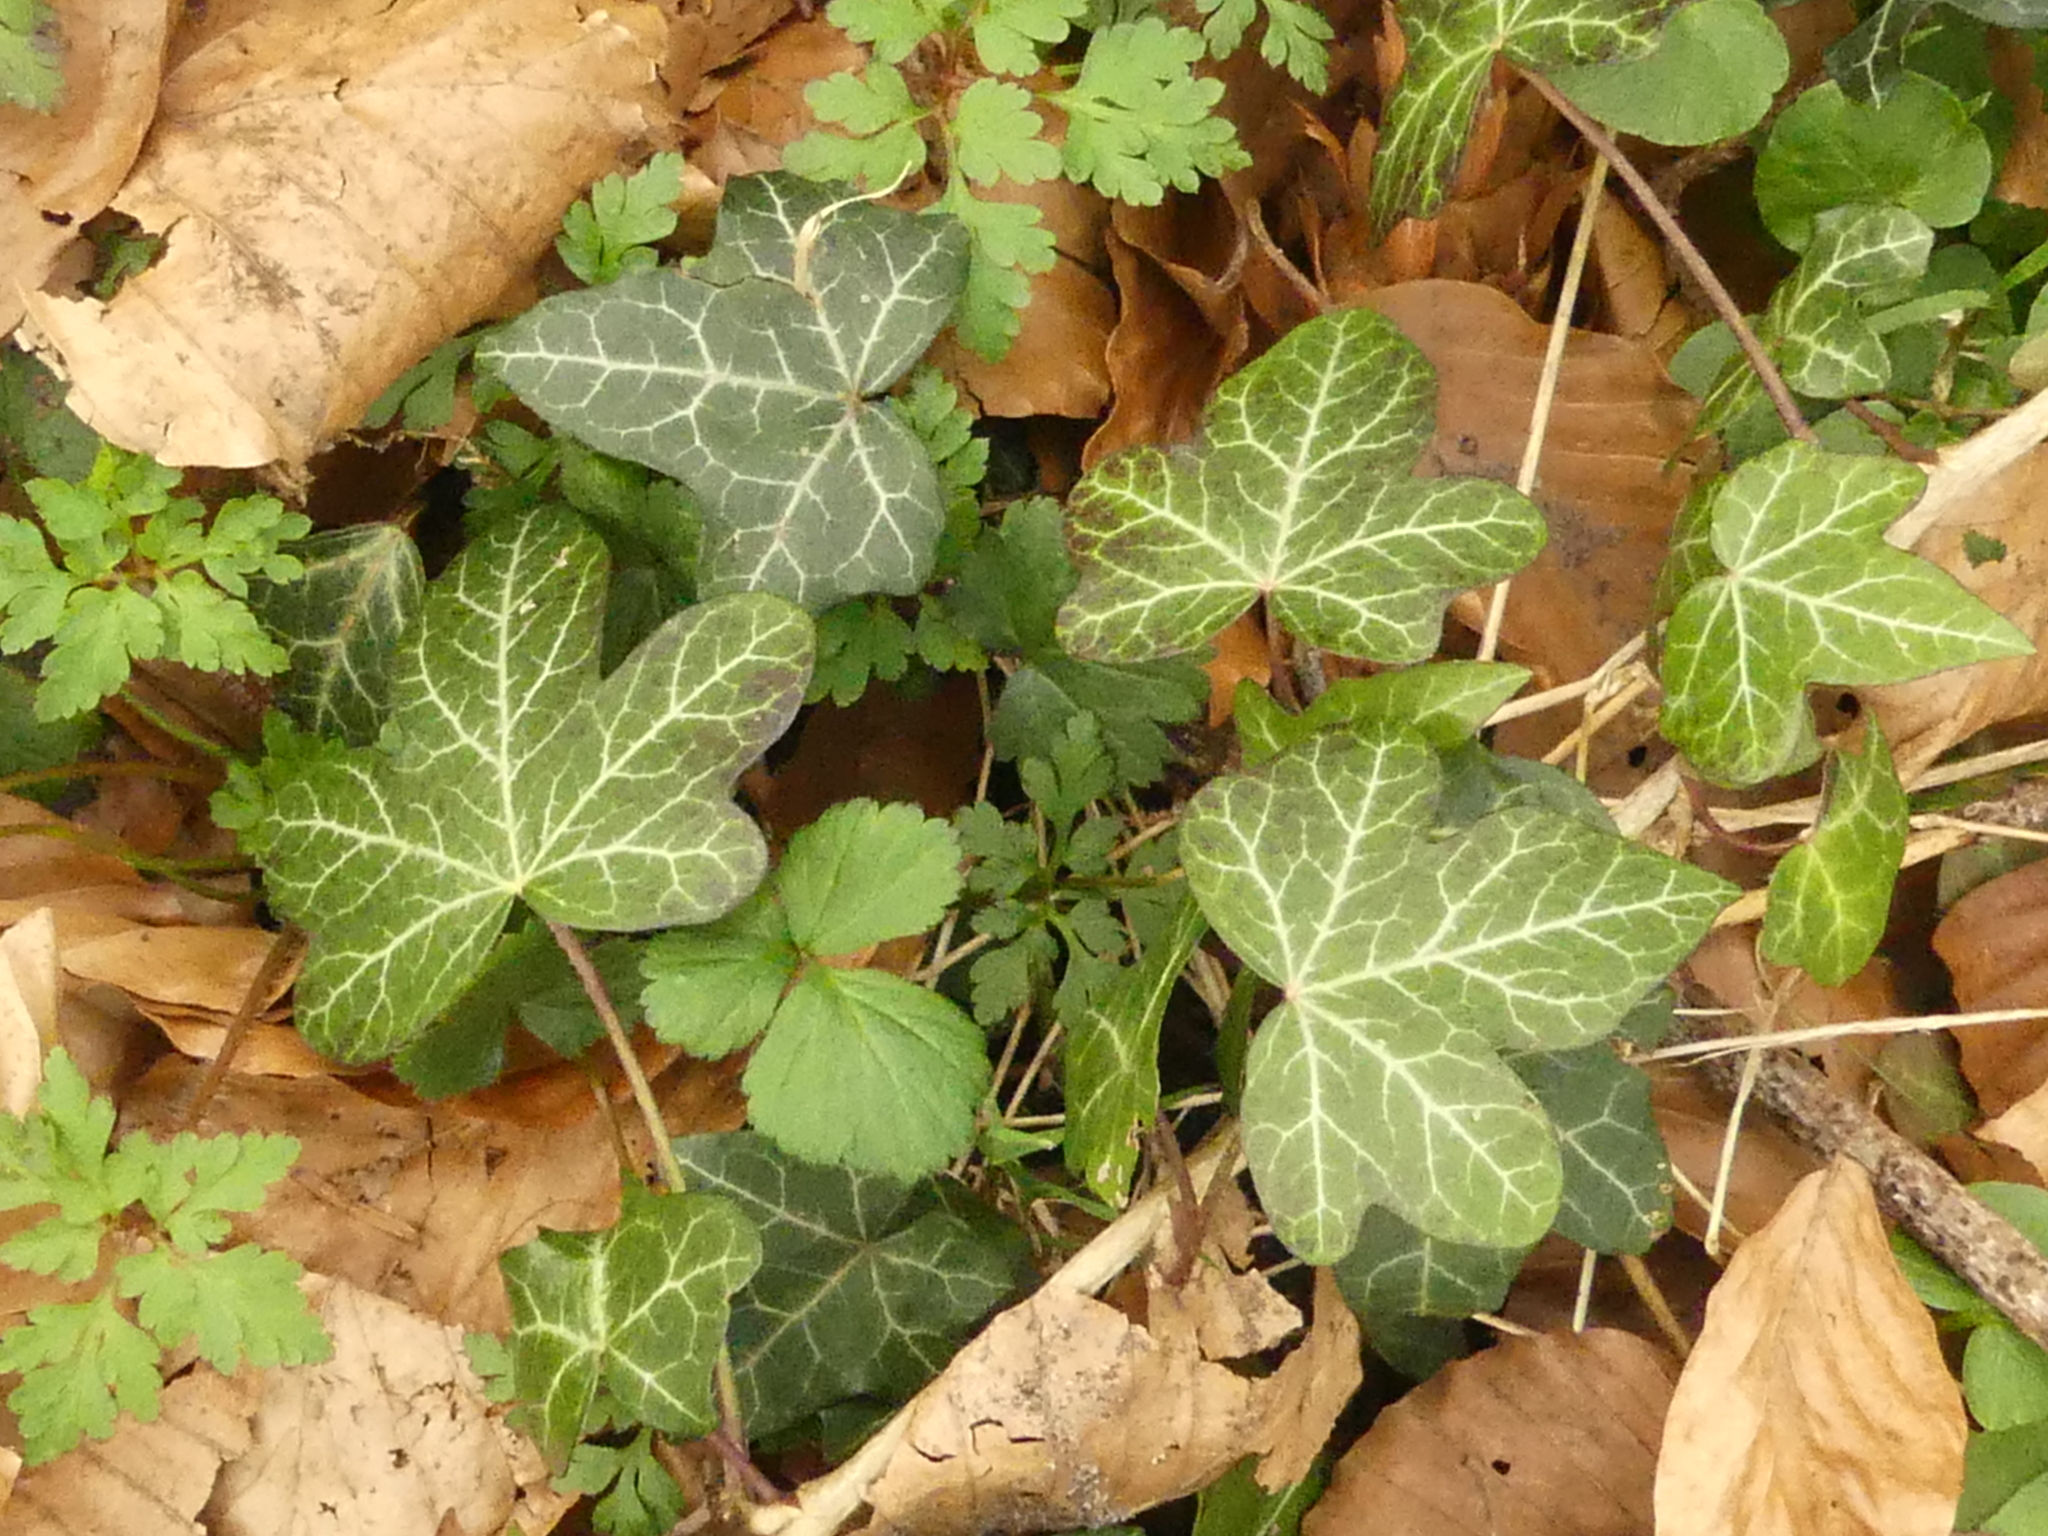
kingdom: Plantae
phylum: Tracheophyta
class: Magnoliopsida
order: Apiales
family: Araliaceae
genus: Hedera
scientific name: Hedera helix
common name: Ivy
